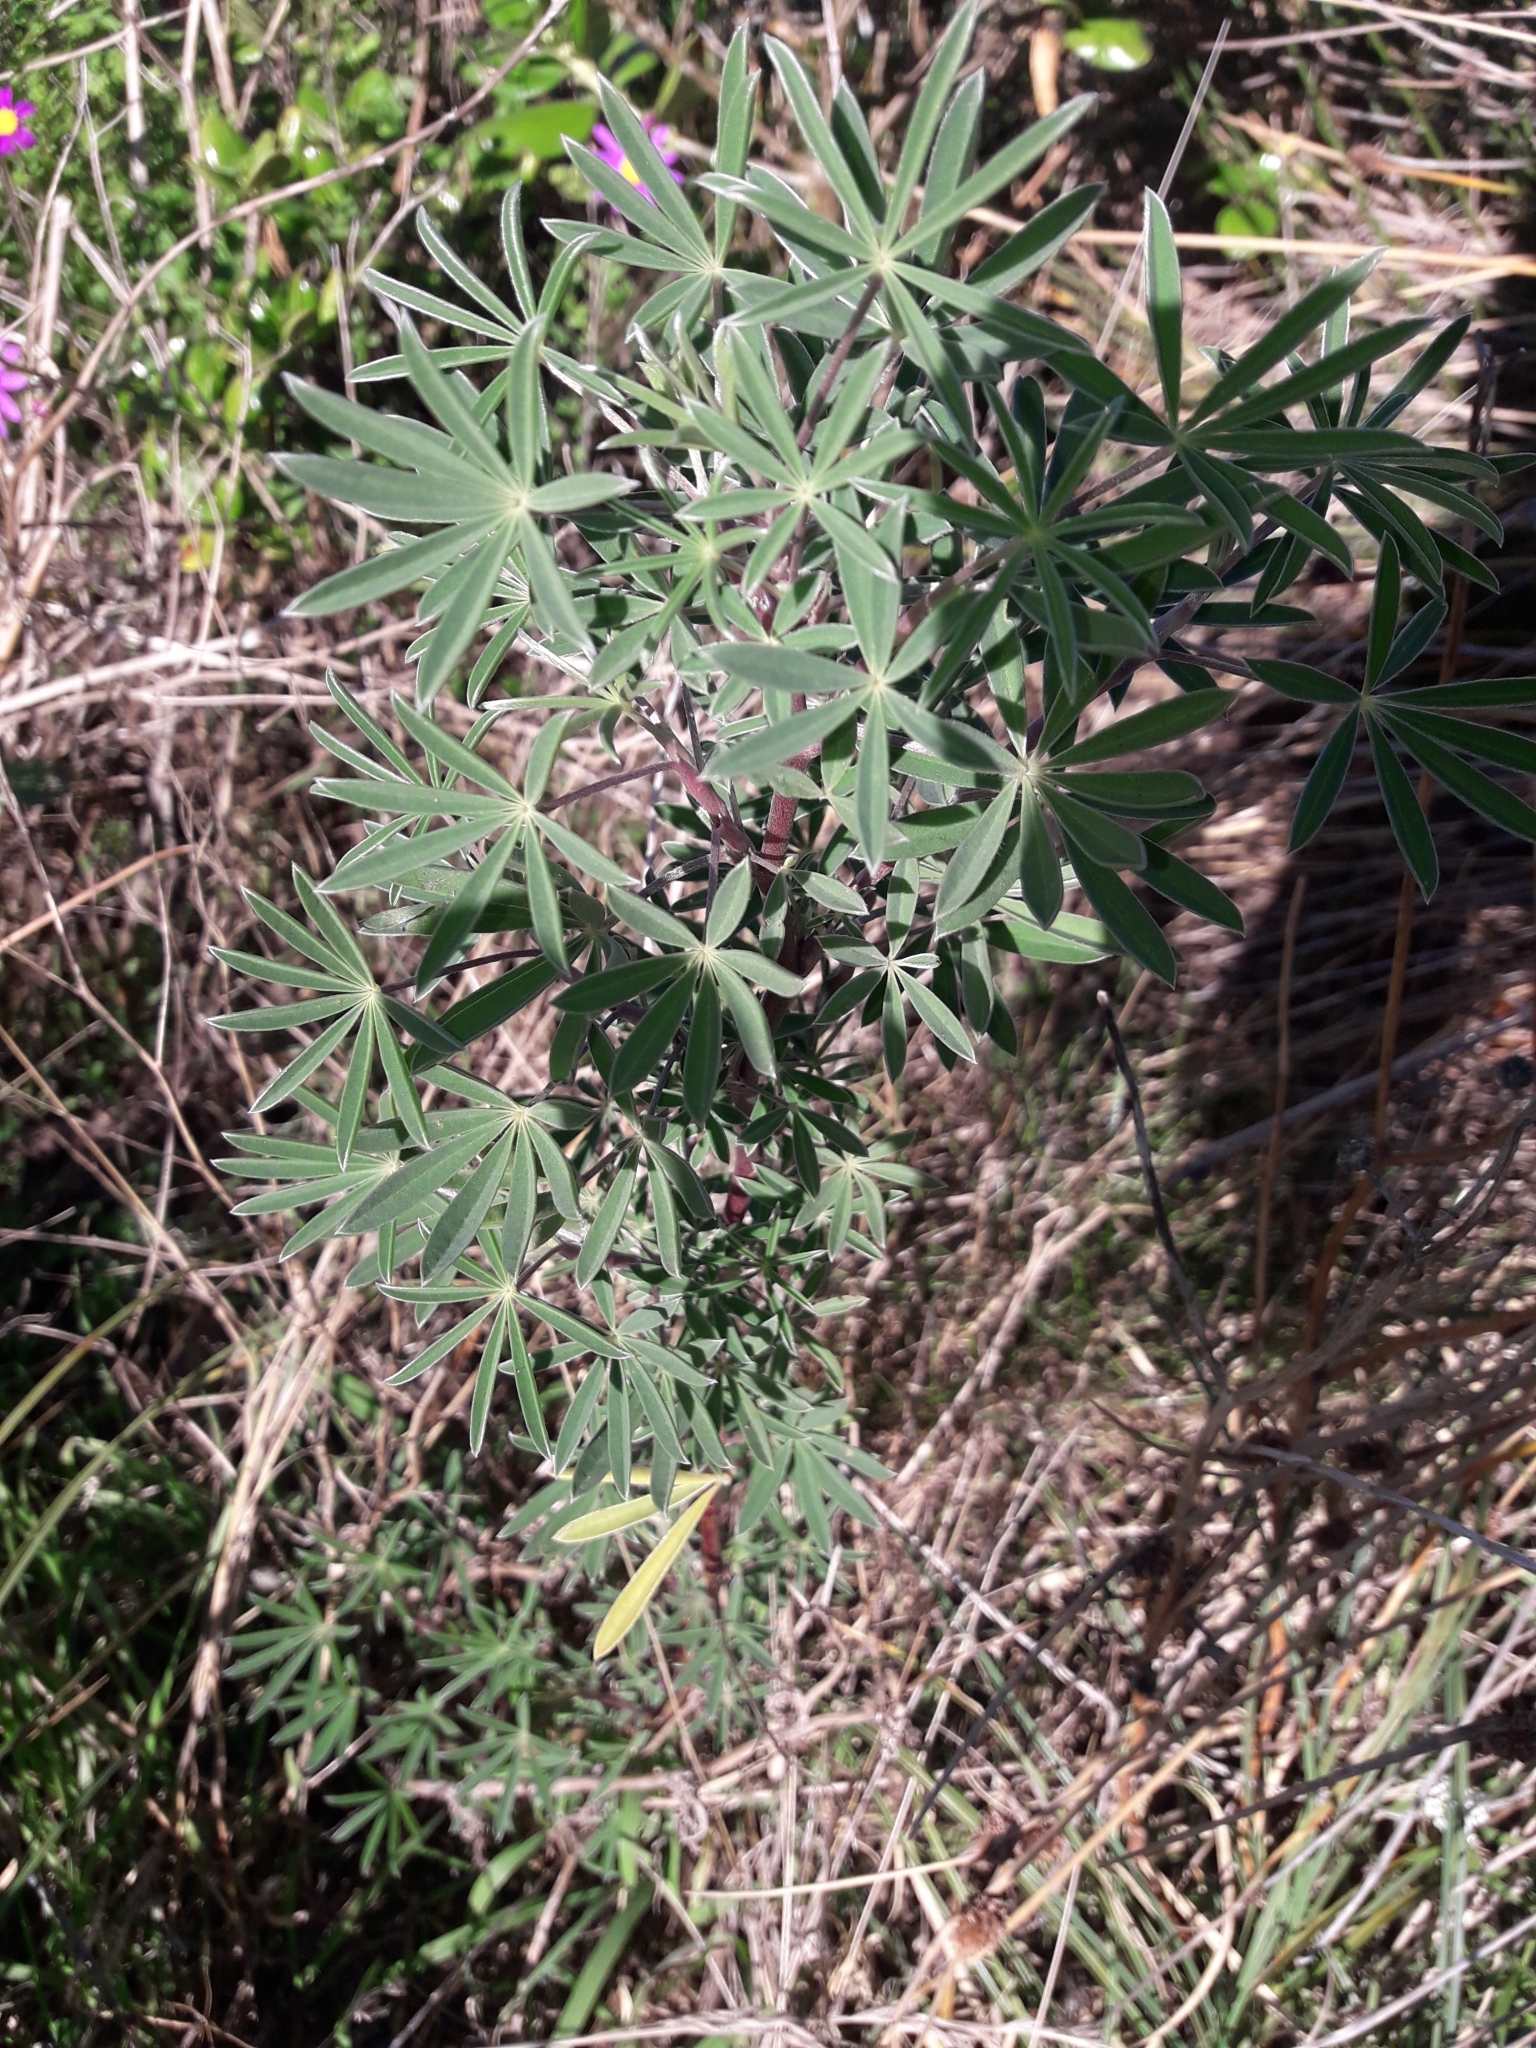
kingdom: Plantae
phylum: Tracheophyta
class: Magnoliopsida
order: Fabales
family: Fabaceae
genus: Lupinus
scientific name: Lupinus arboreus
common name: Yellow bush lupine
